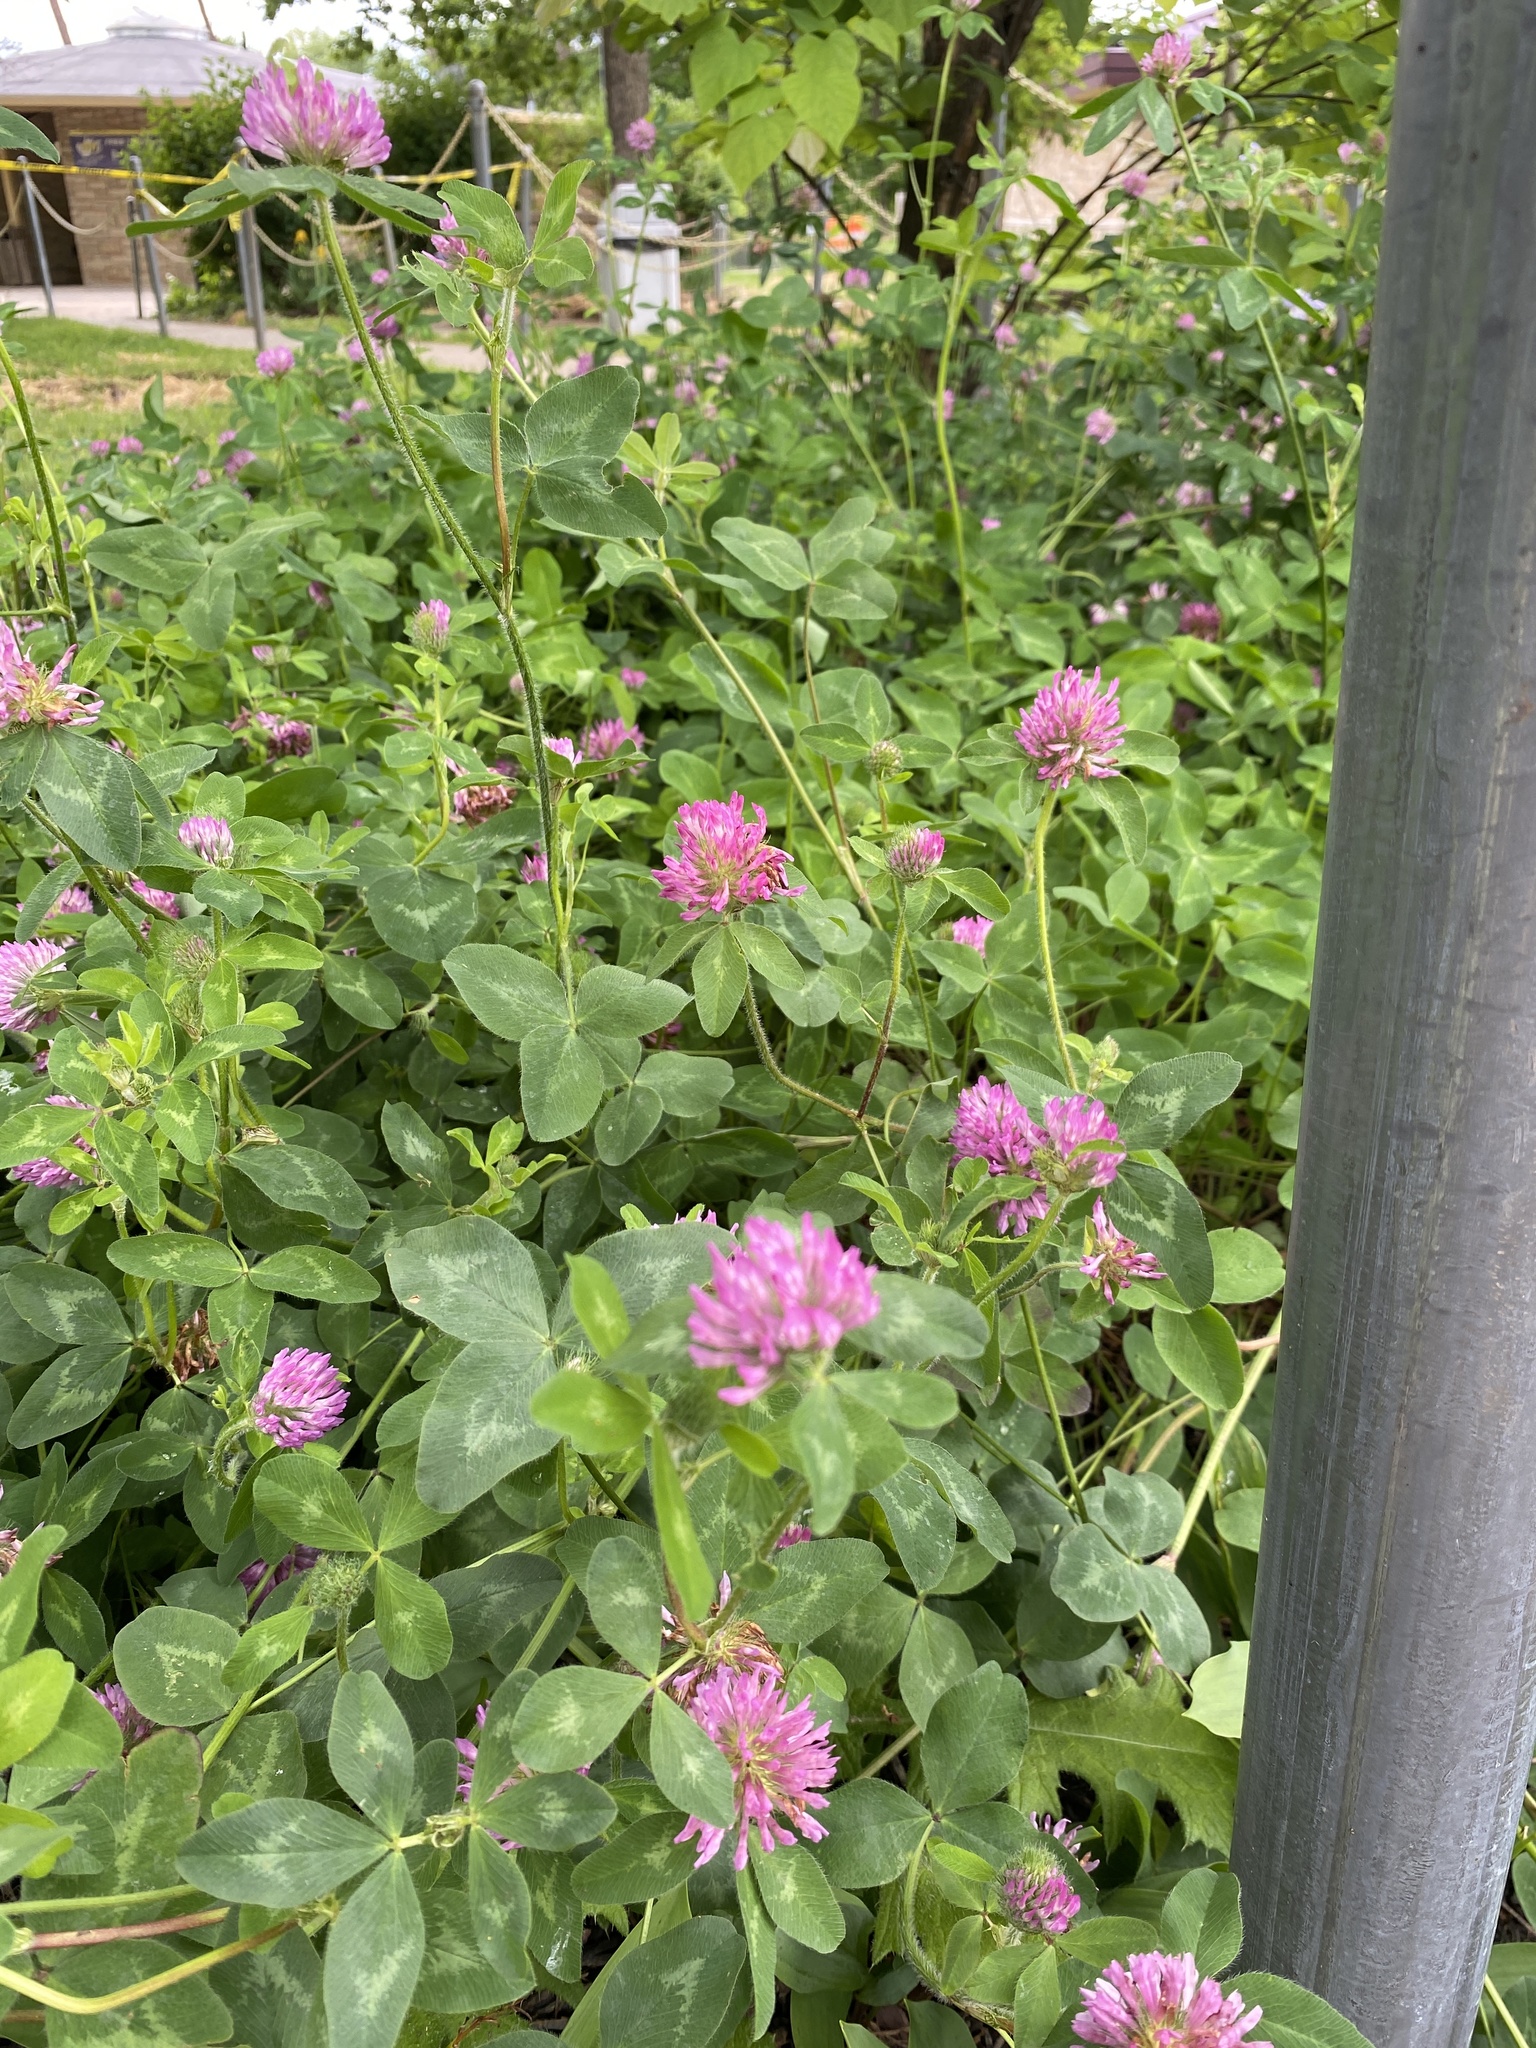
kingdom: Plantae
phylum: Tracheophyta
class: Magnoliopsida
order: Fabales
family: Fabaceae
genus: Trifolium
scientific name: Trifolium pratense
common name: Red clover
